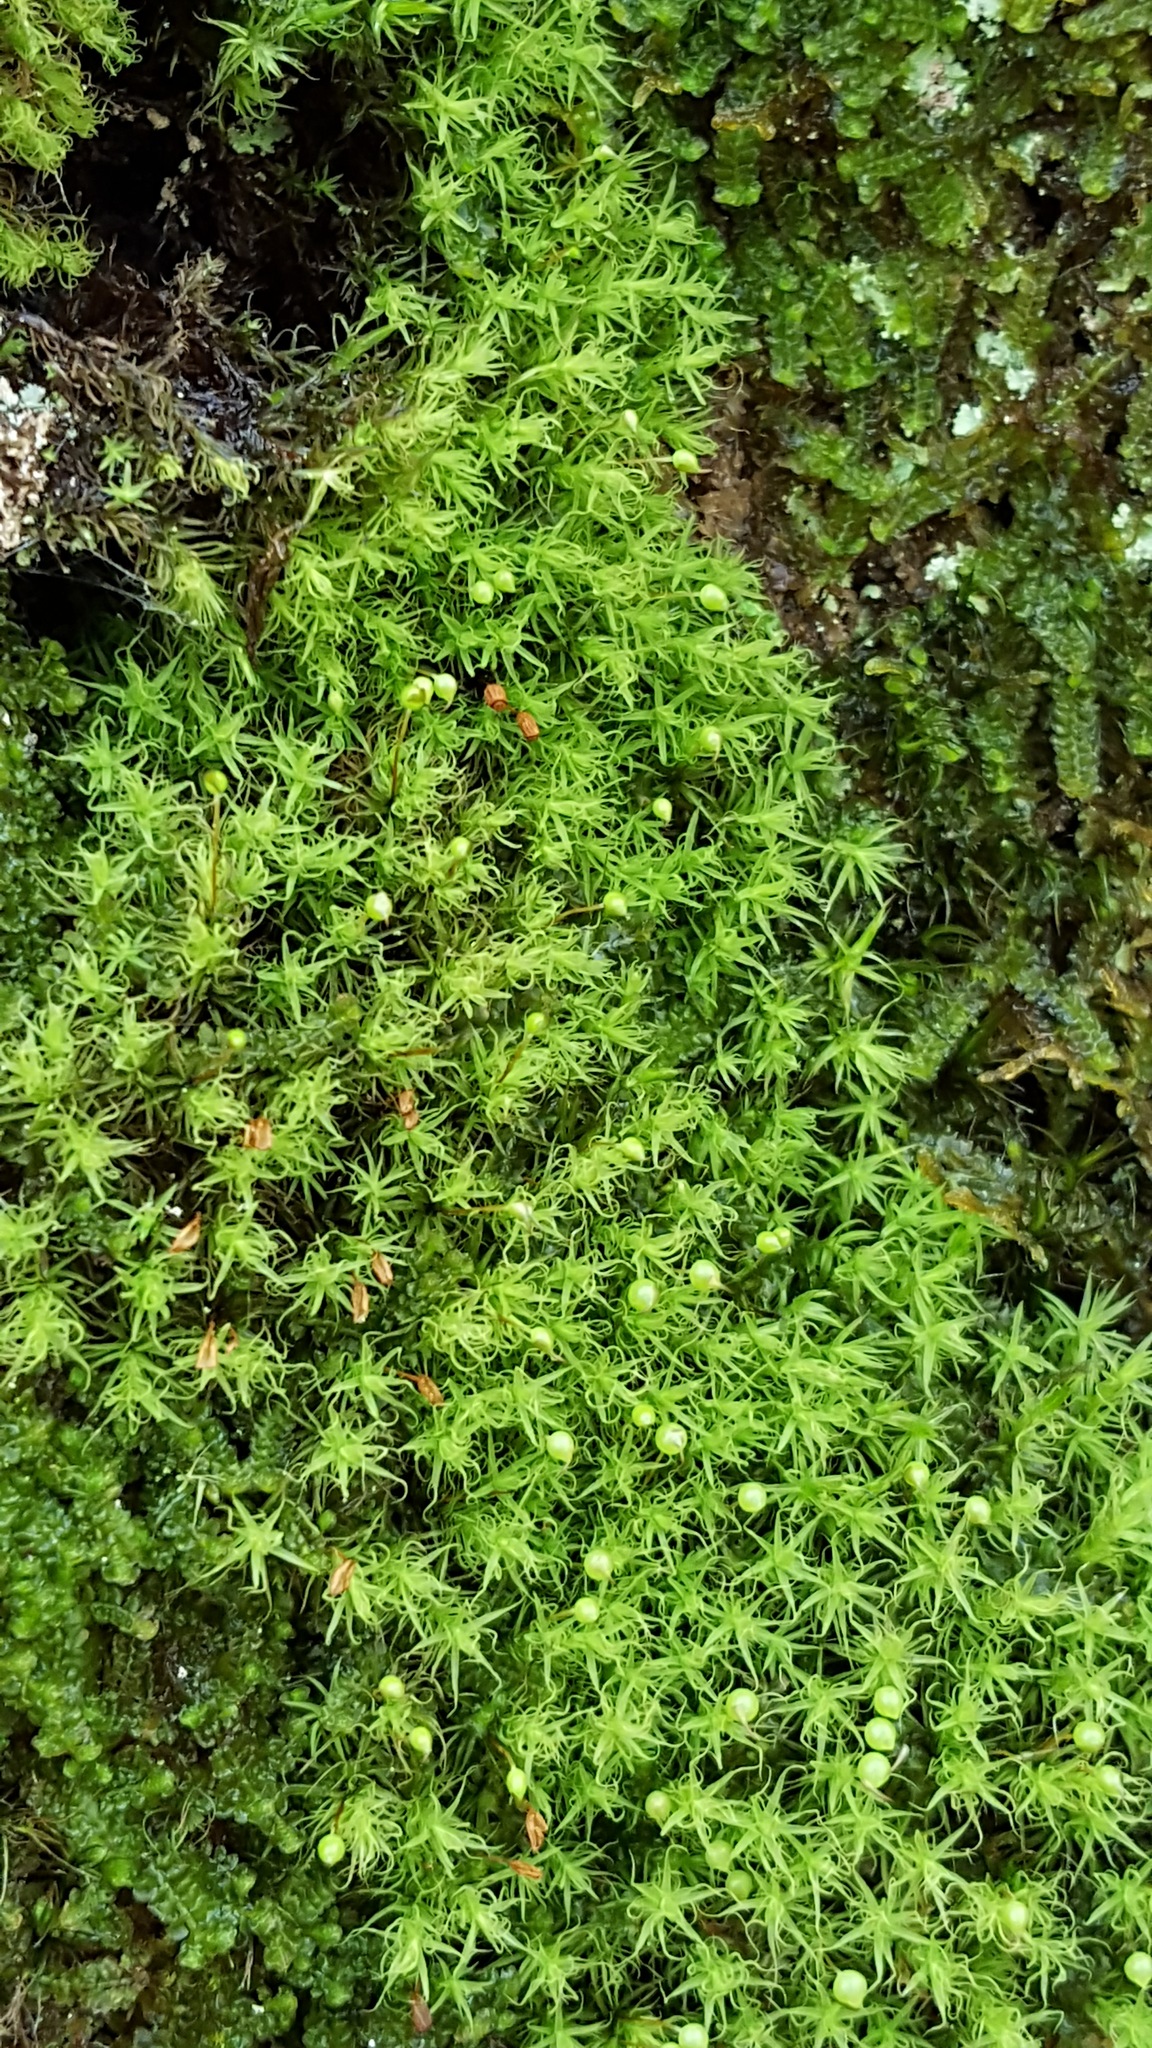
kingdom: Plantae
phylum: Bryophyta
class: Bryopsida
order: Bartramiales
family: Bartramiaceae
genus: Bartramia
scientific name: Bartramia ithyphylla
